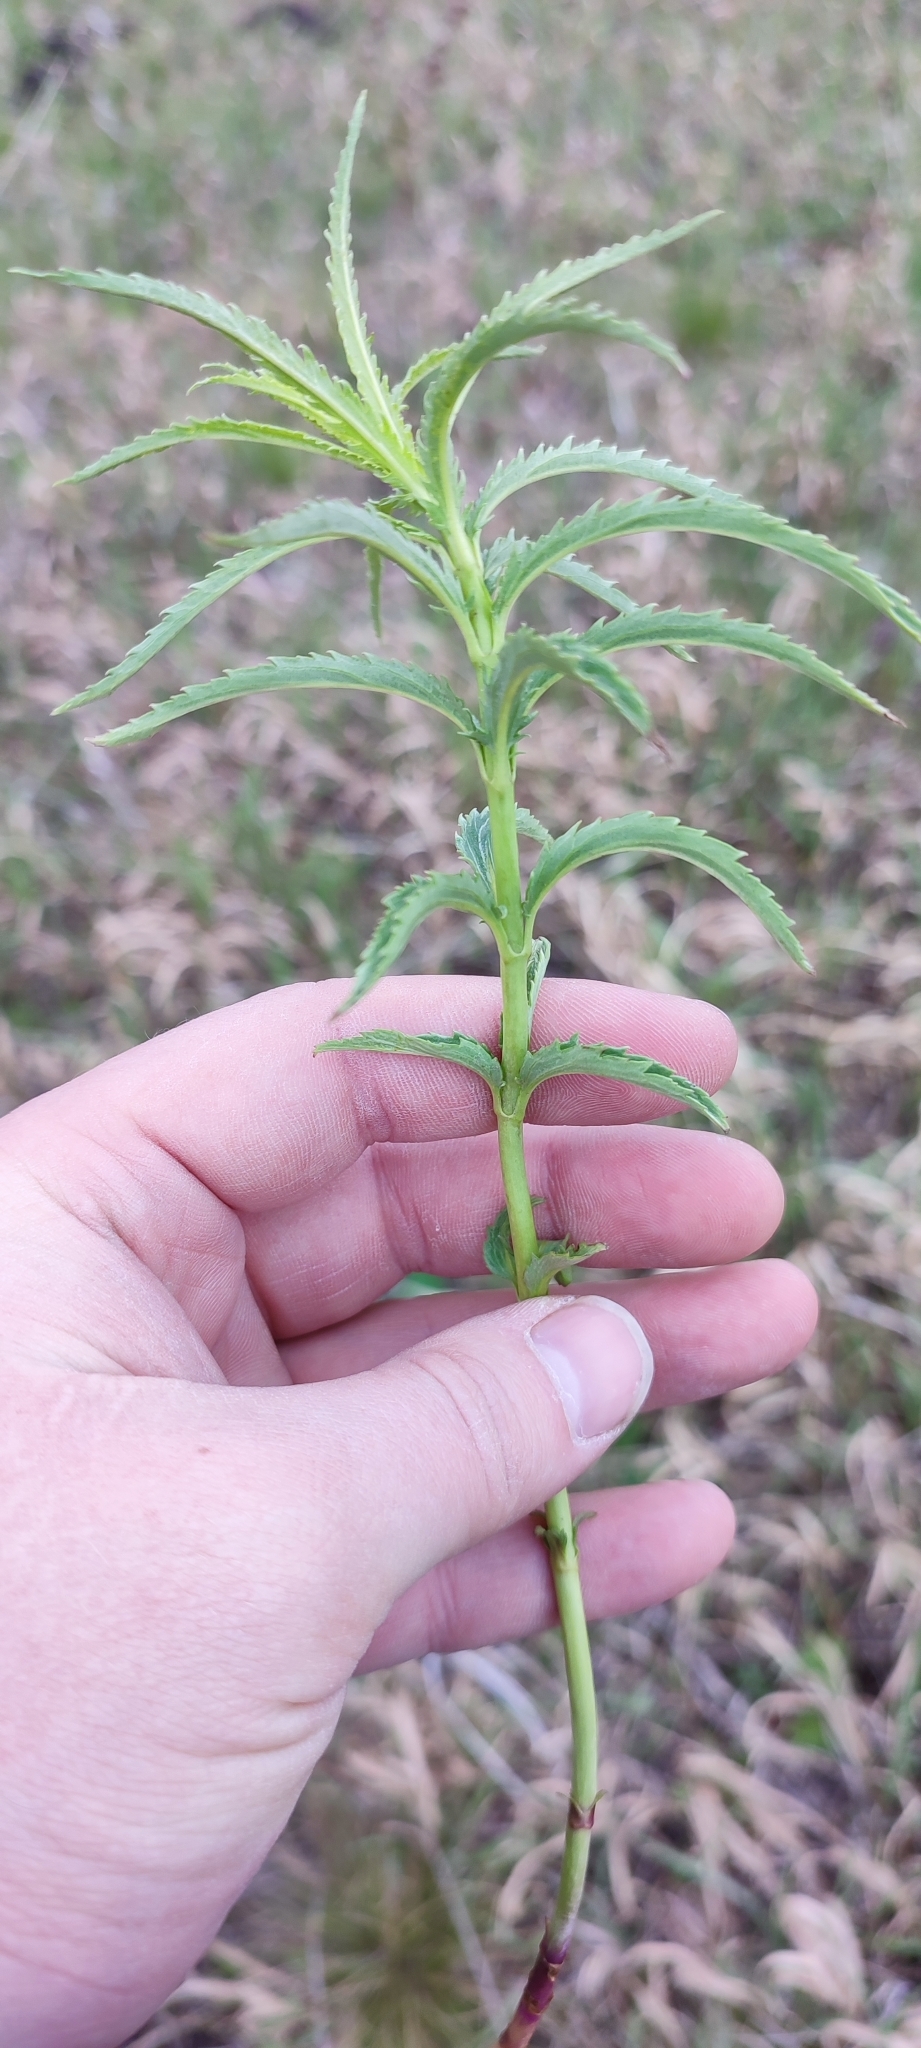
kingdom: Plantae
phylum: Tracheophyta
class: Magnoliopsida
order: Lamiales
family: Plantaginaceae
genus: Veronica
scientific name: Veronica longifolia
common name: Garden speedwell
